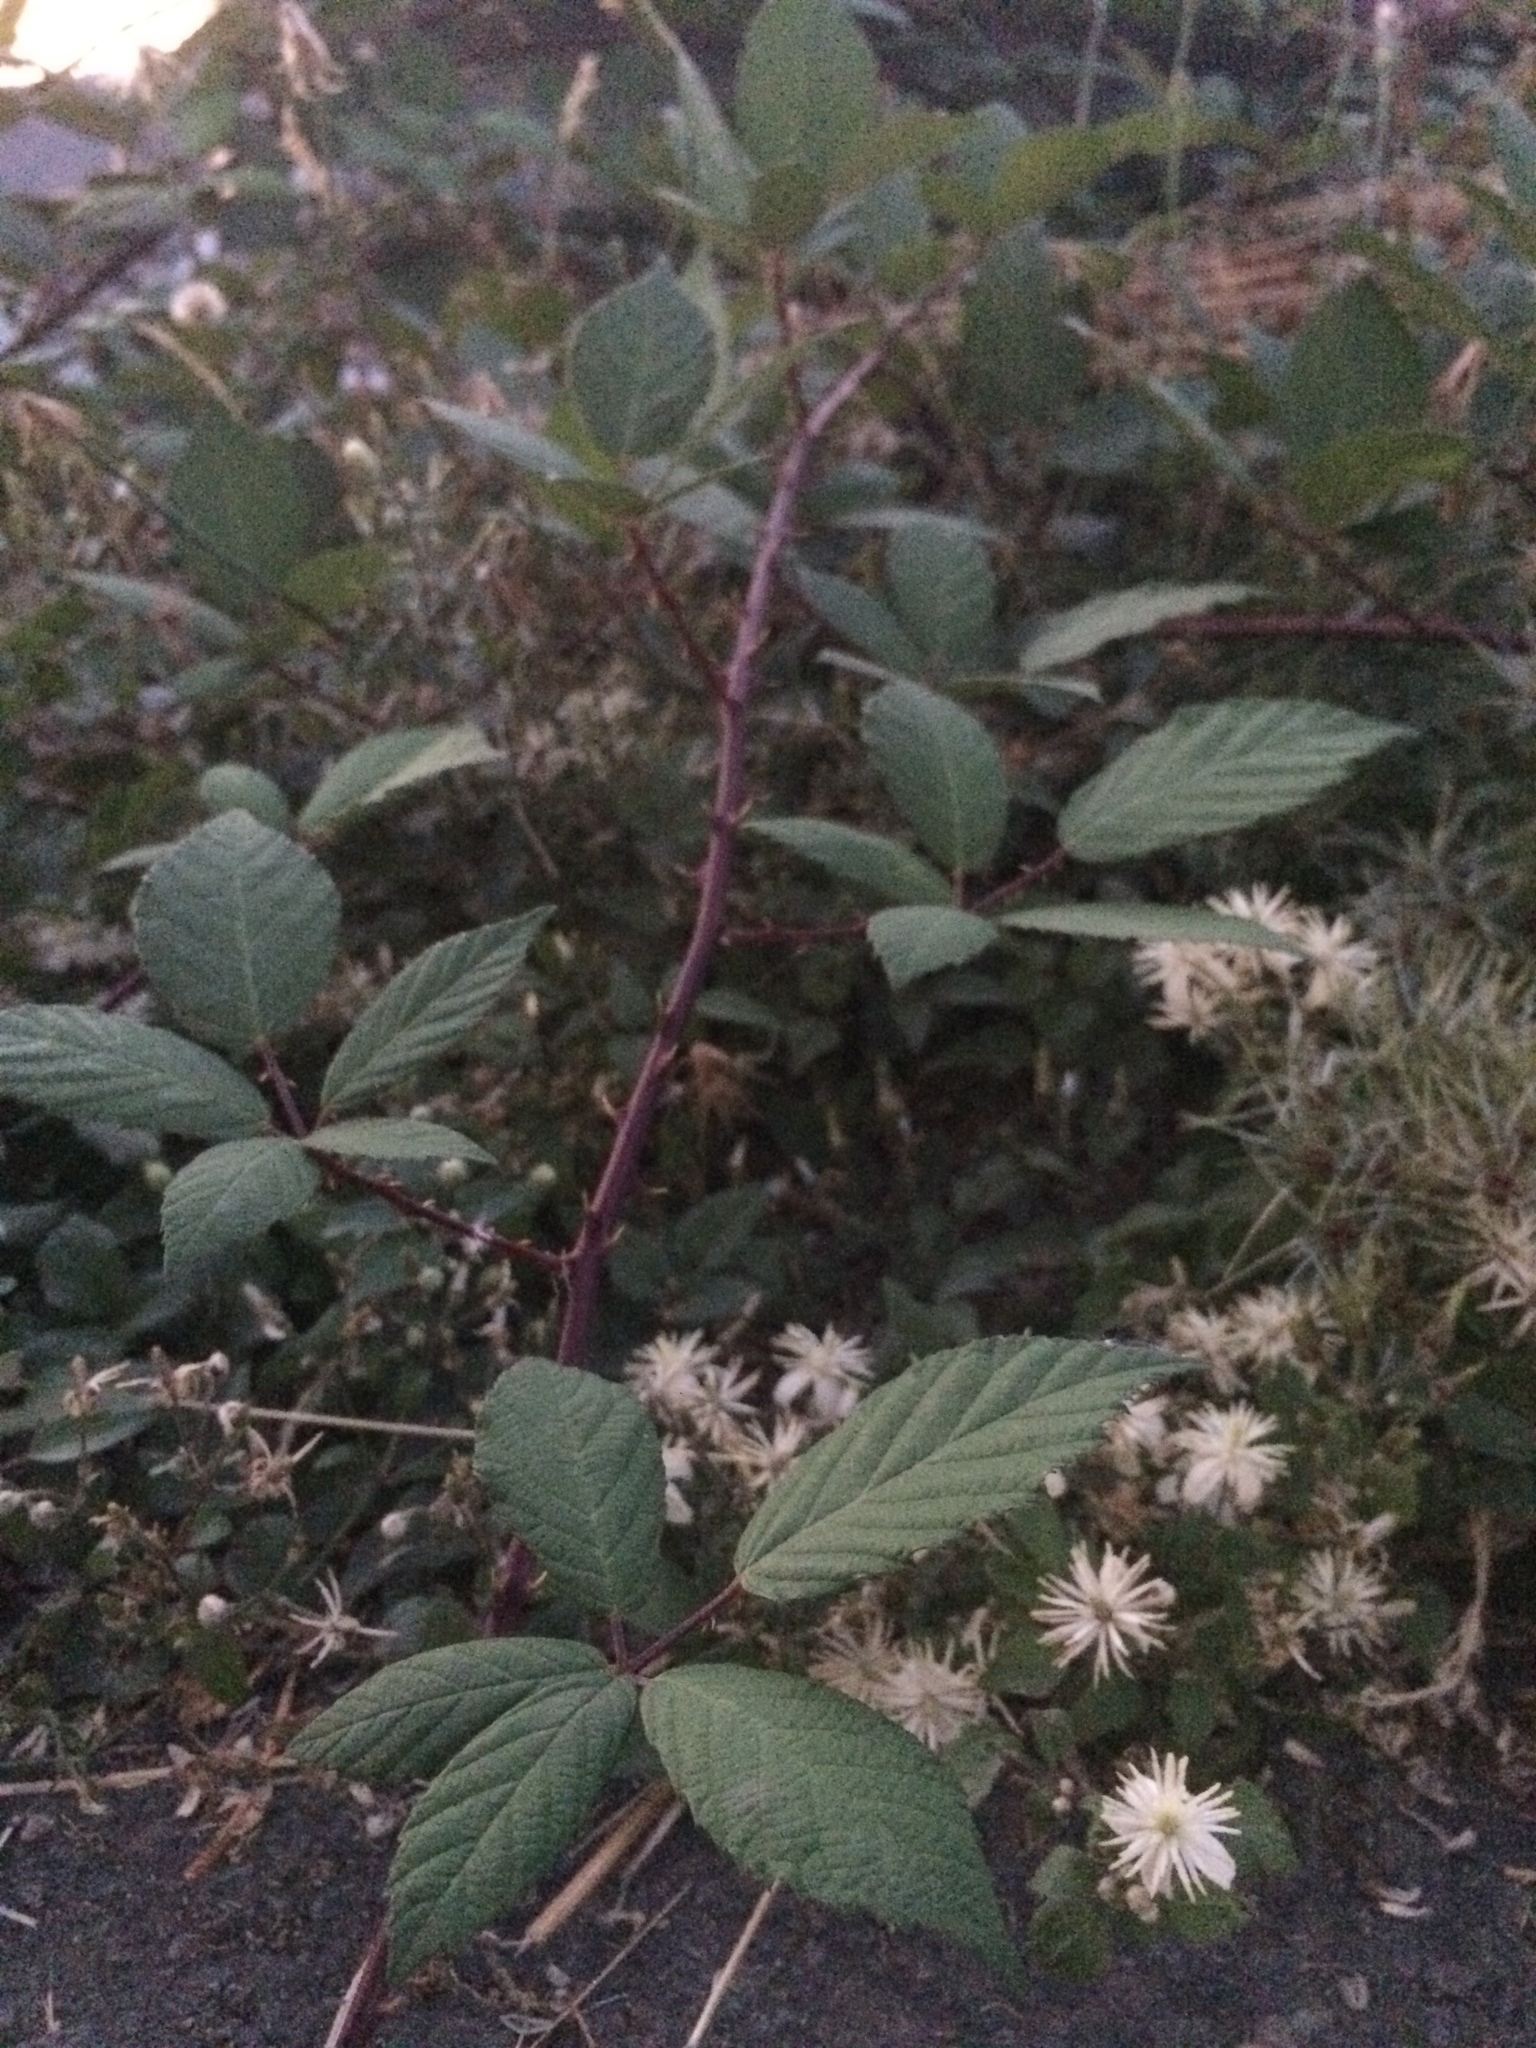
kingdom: Plantae
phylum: Tracheophyta
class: Magnoliopsida
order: Rosales
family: Rosaceae
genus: Rubus
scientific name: Rubus bifrons
